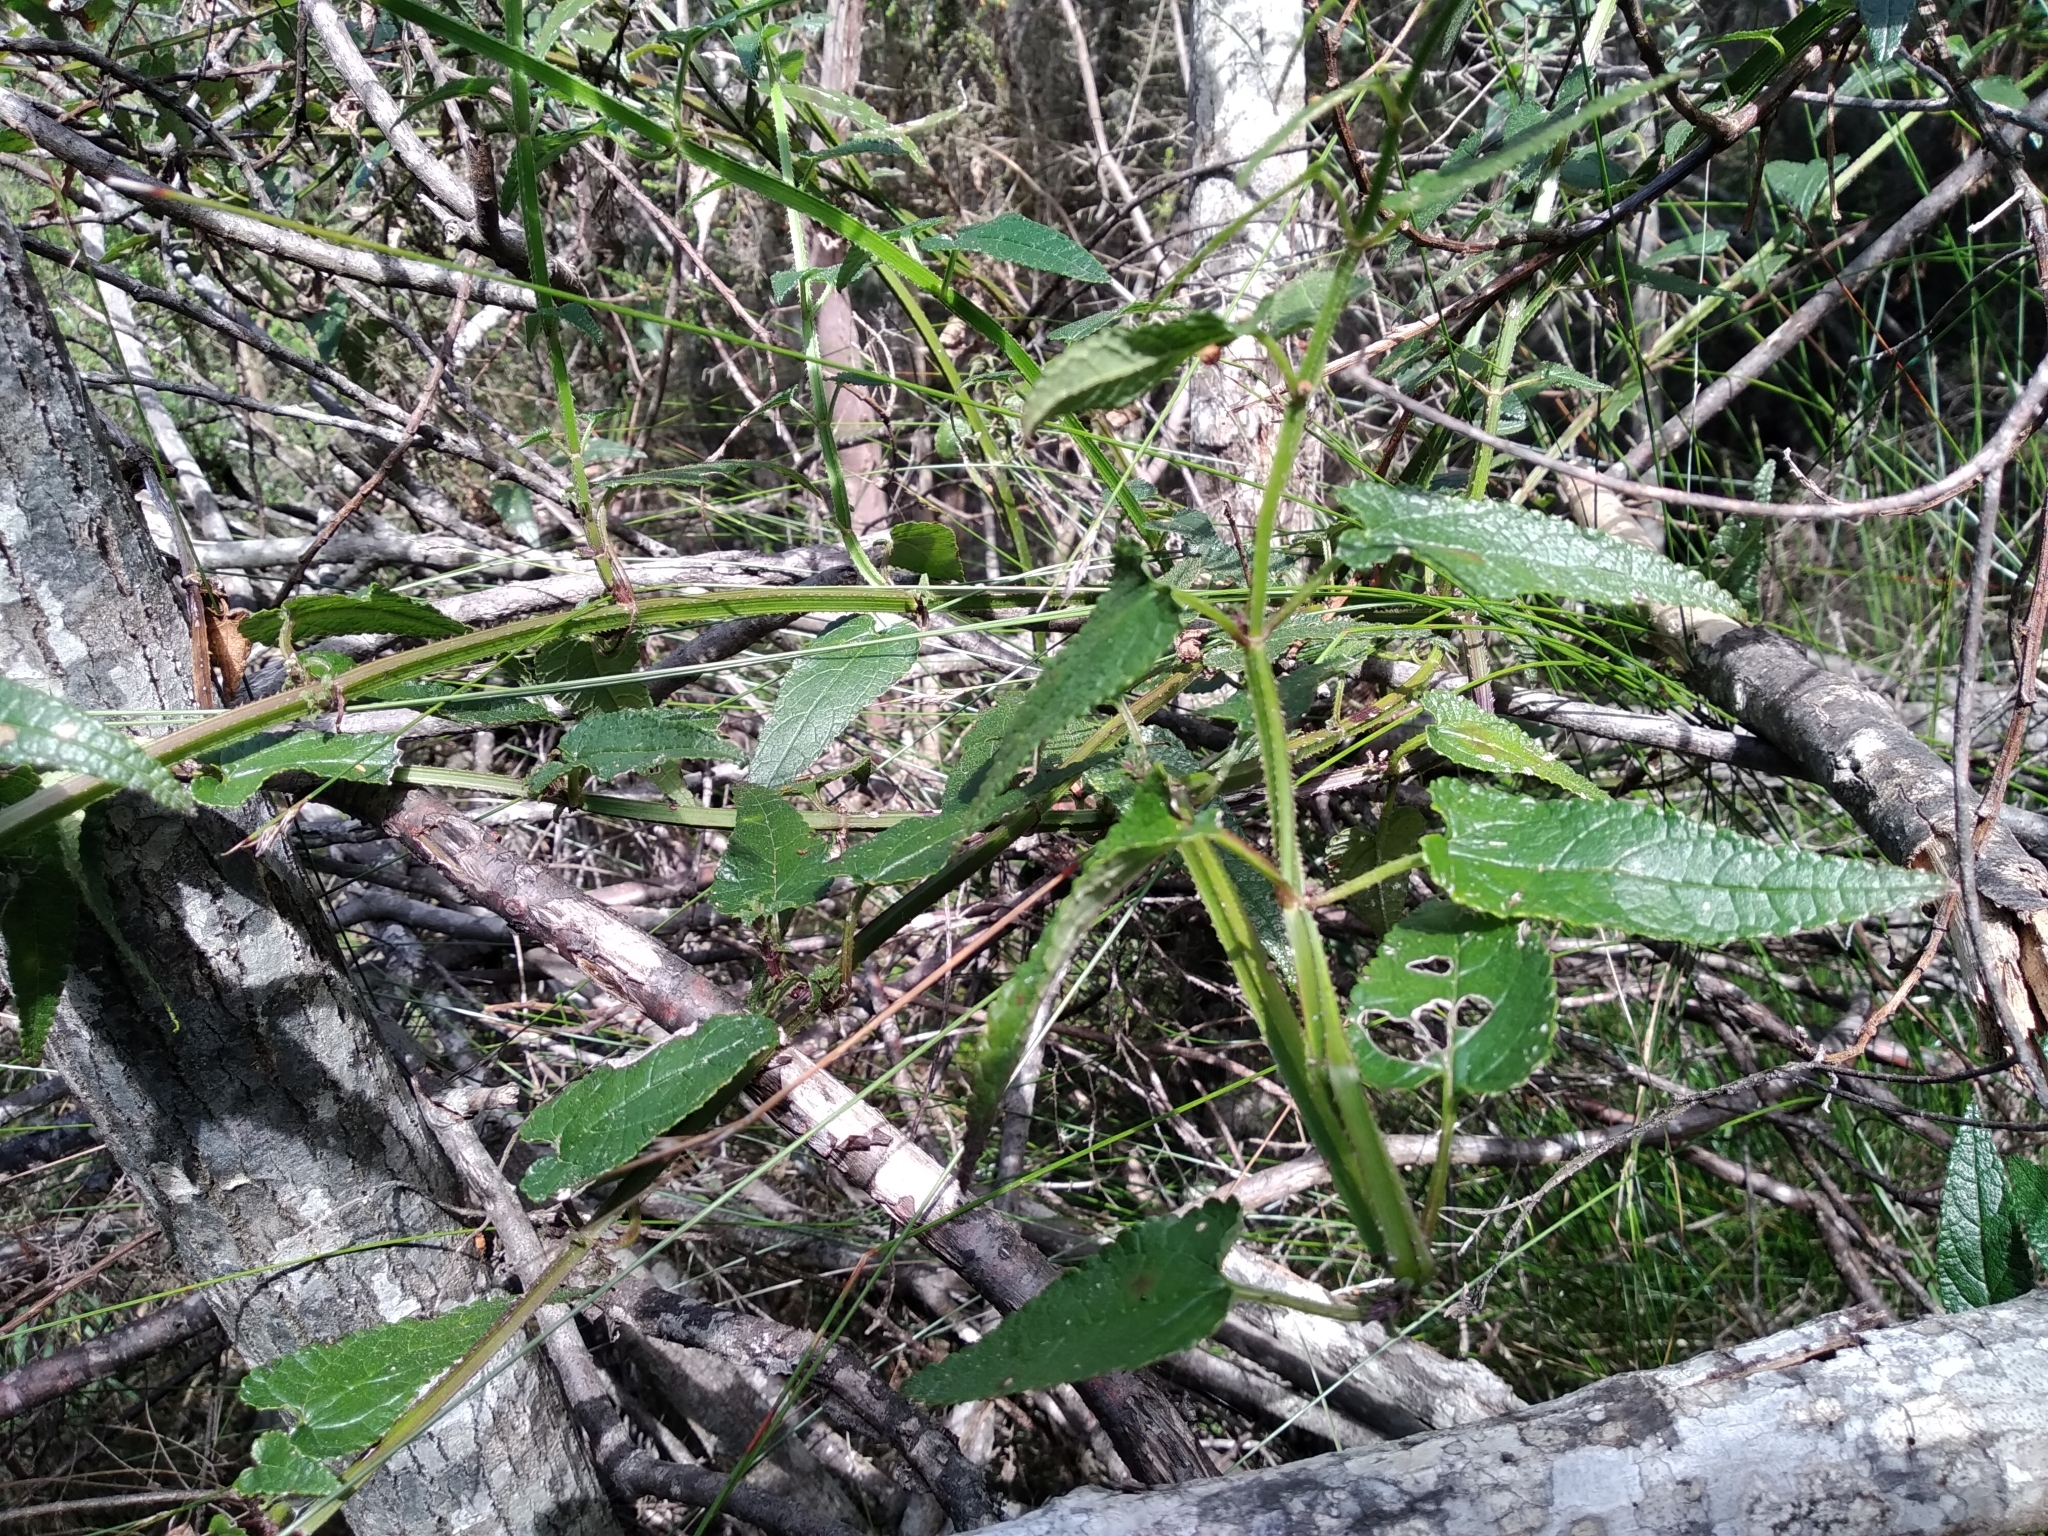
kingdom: Plantae
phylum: Tracheophyta
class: Magnoliopsida
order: Lamiales
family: Lamiaceae
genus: Stachys
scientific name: Stachys thunbergii
